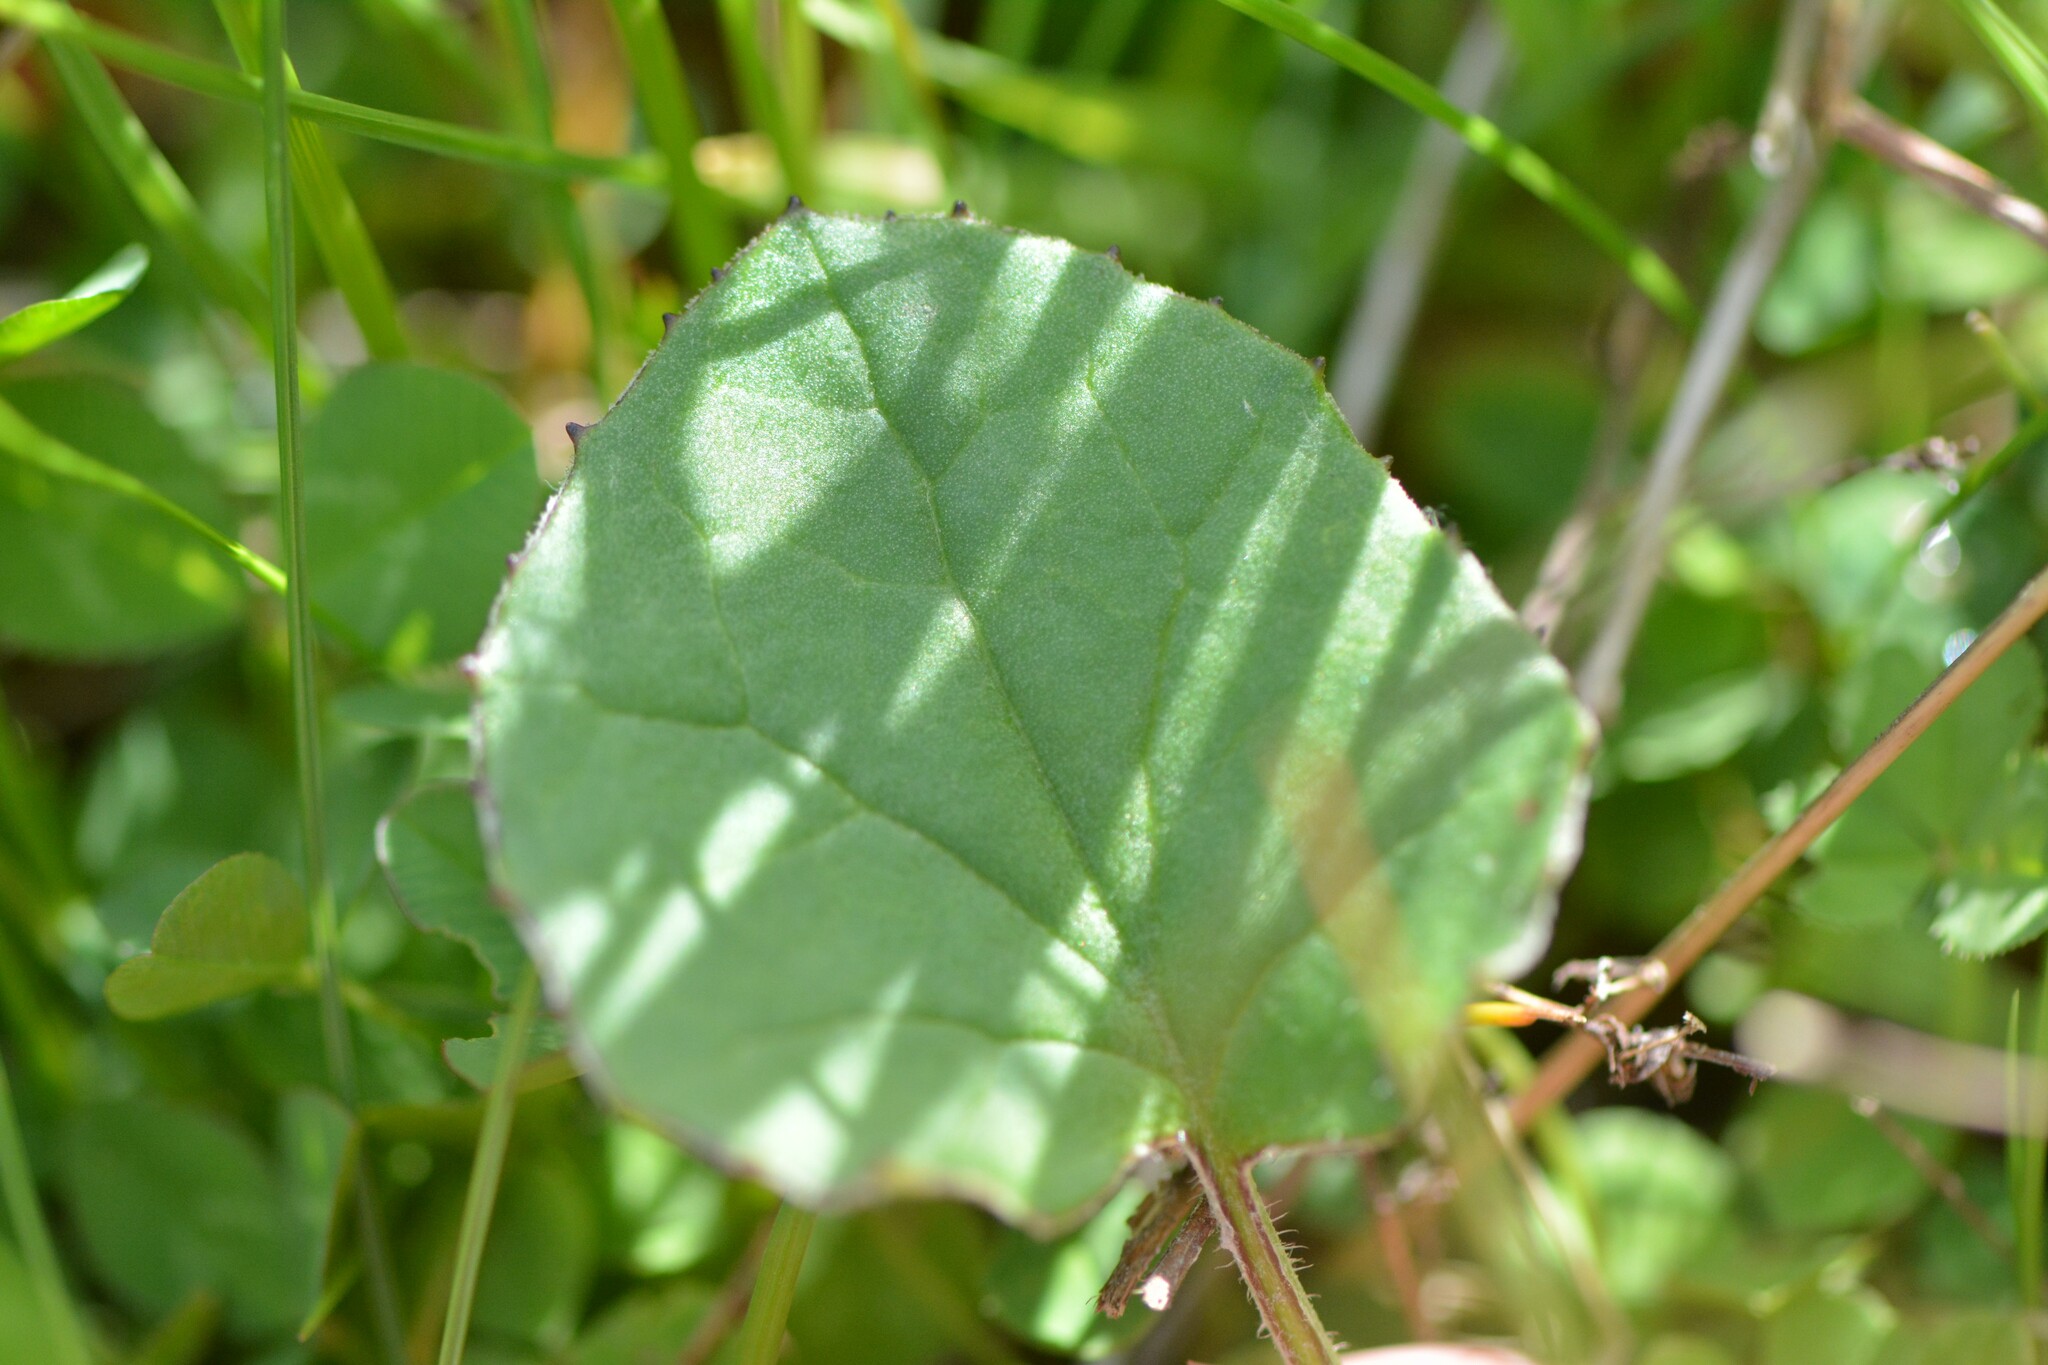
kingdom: Plantae
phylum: Tracheophyta
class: Magnoliopsida
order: Asterales
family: Asteraceae
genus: Tussilago
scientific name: Tussilago farfara
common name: Coltsfoot
